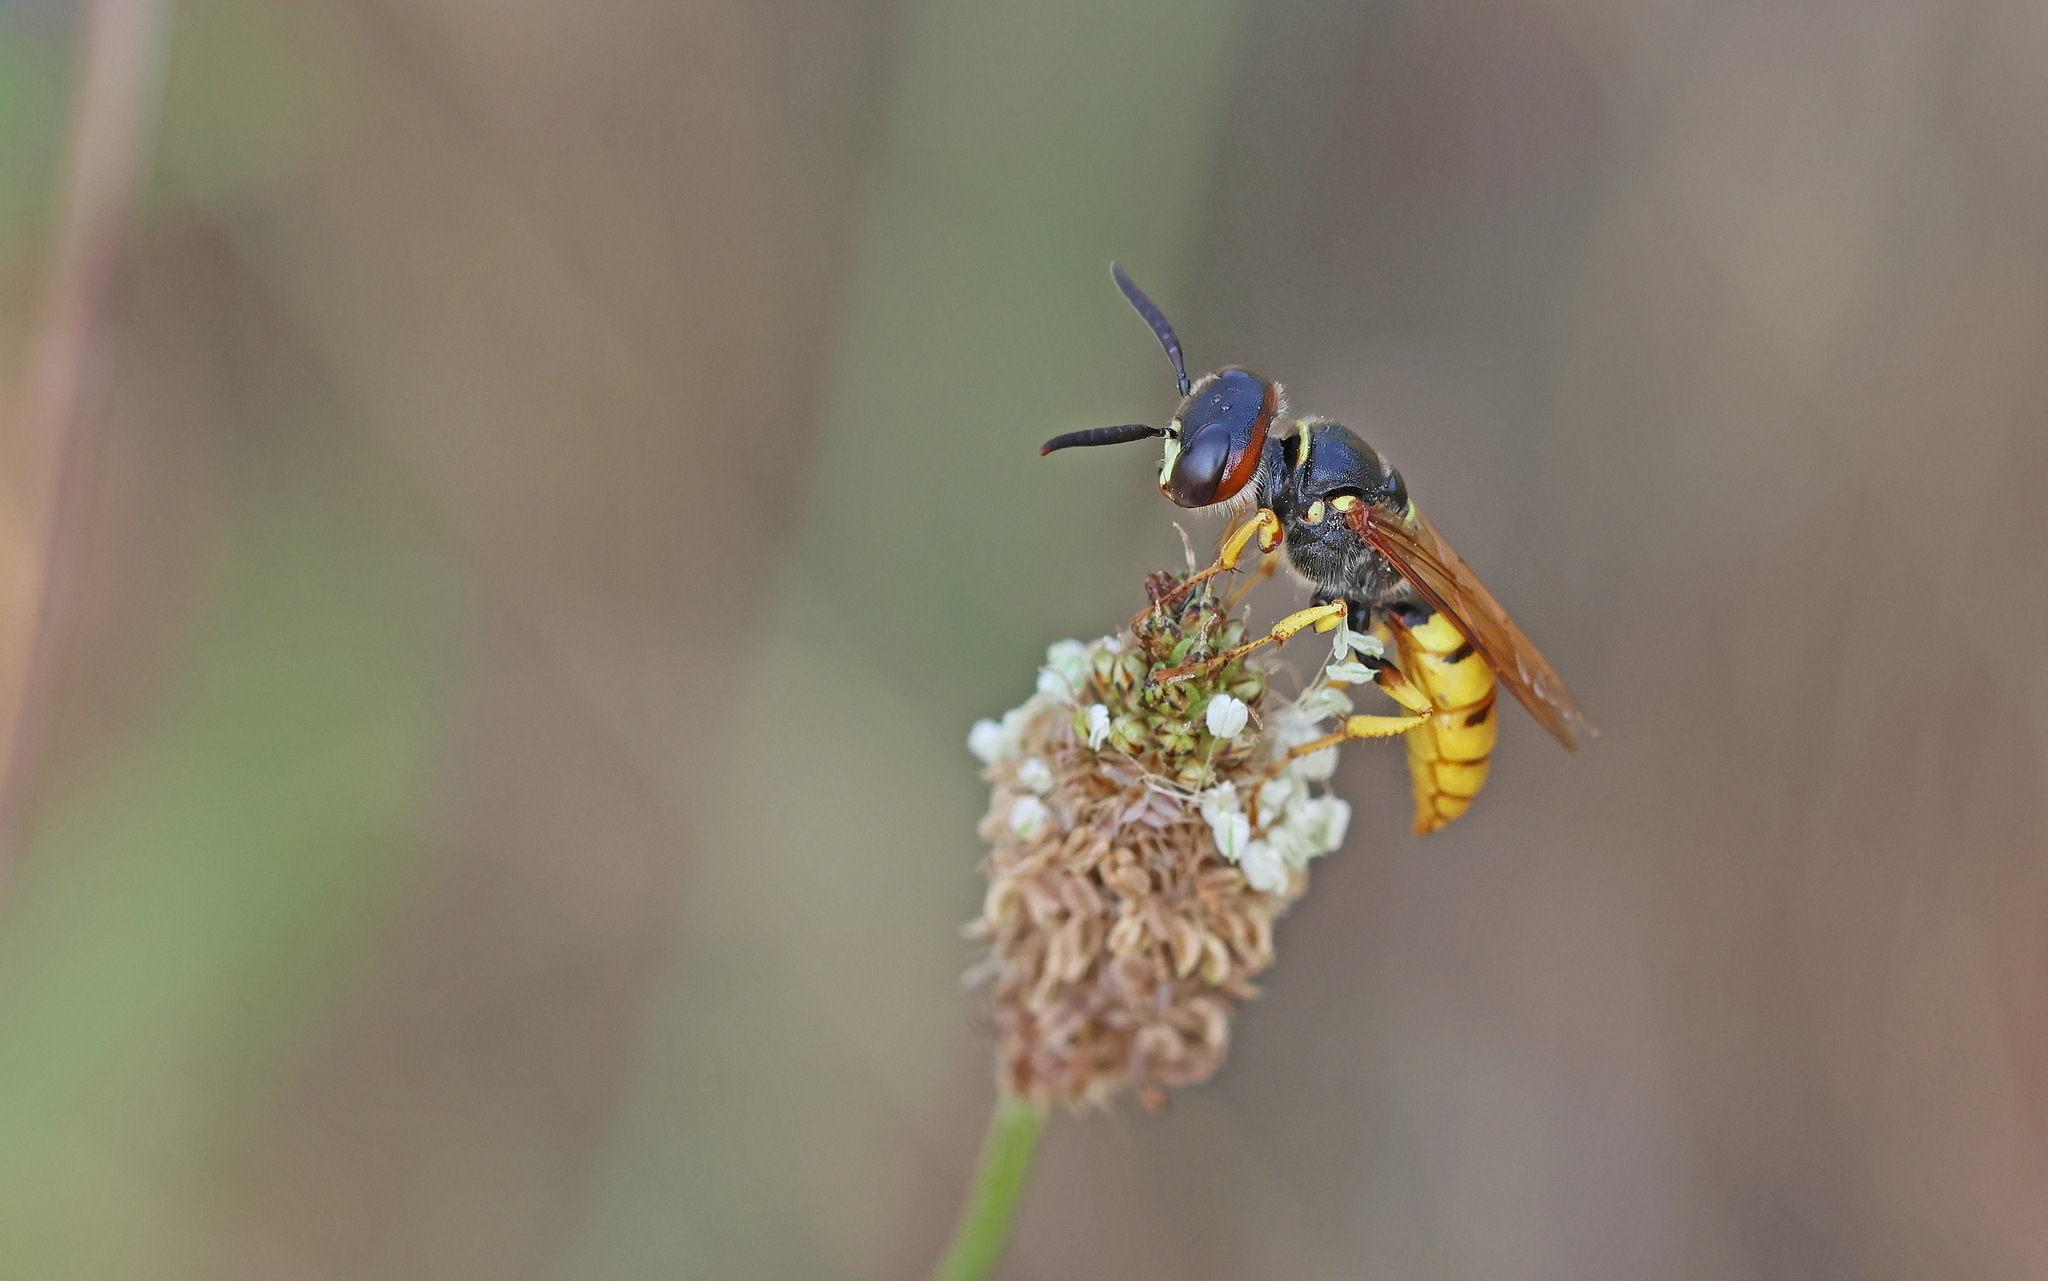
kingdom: Animalia
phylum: Arthropoda
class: Insecta
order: Hymenoptera
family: Crabronidae
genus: Philanthus
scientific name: Philanthus triangulum
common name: Bee wolf
